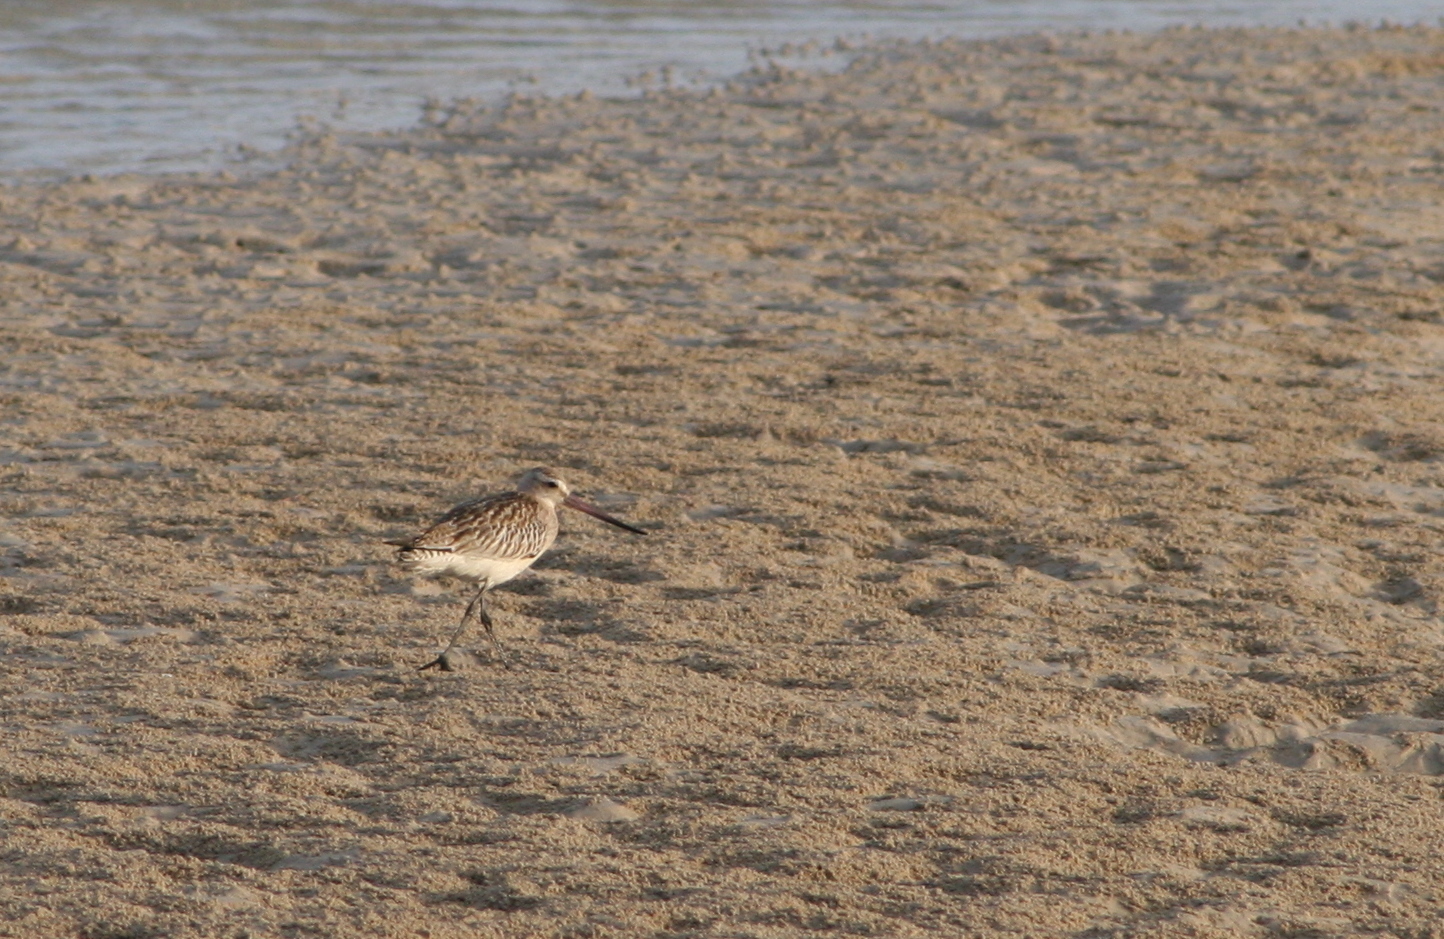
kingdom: Animalia
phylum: Chordata
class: Aves
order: Charadriiformes
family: Scolopacidae
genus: Limosa
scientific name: Limosa lapponica
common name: Bar-tailed godwit
